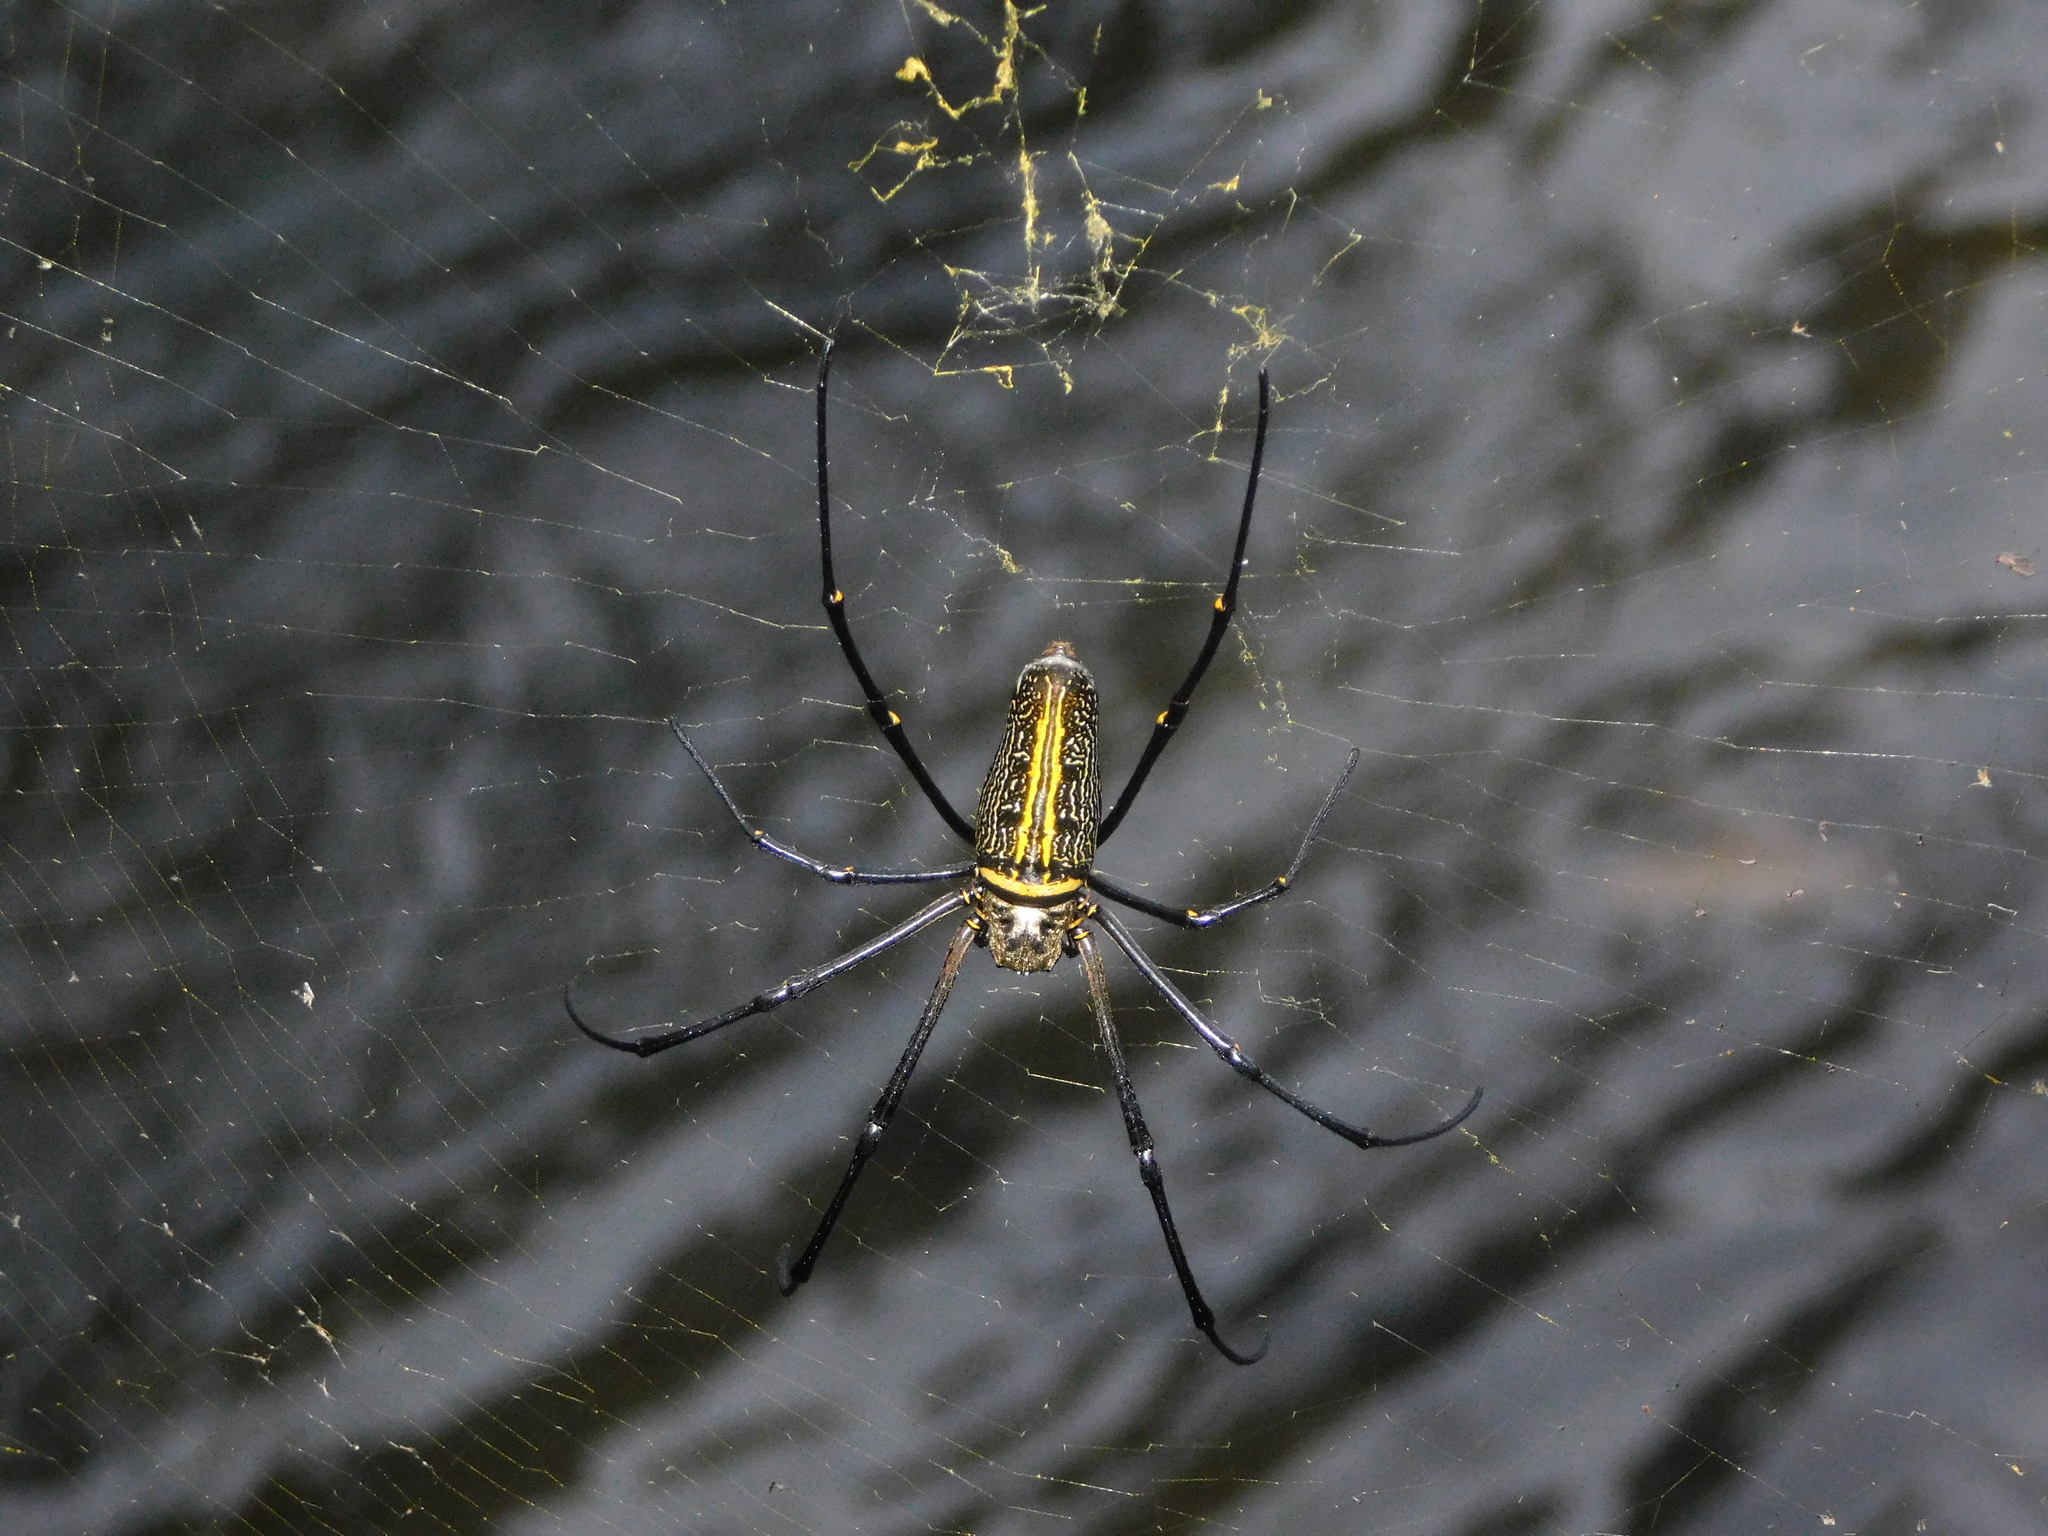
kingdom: Animalia
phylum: Arthropoda
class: Arachnida
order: Araneae
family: Araneidae
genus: Nephila
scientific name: Nephila pilipes
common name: Giant golden orb weaver
